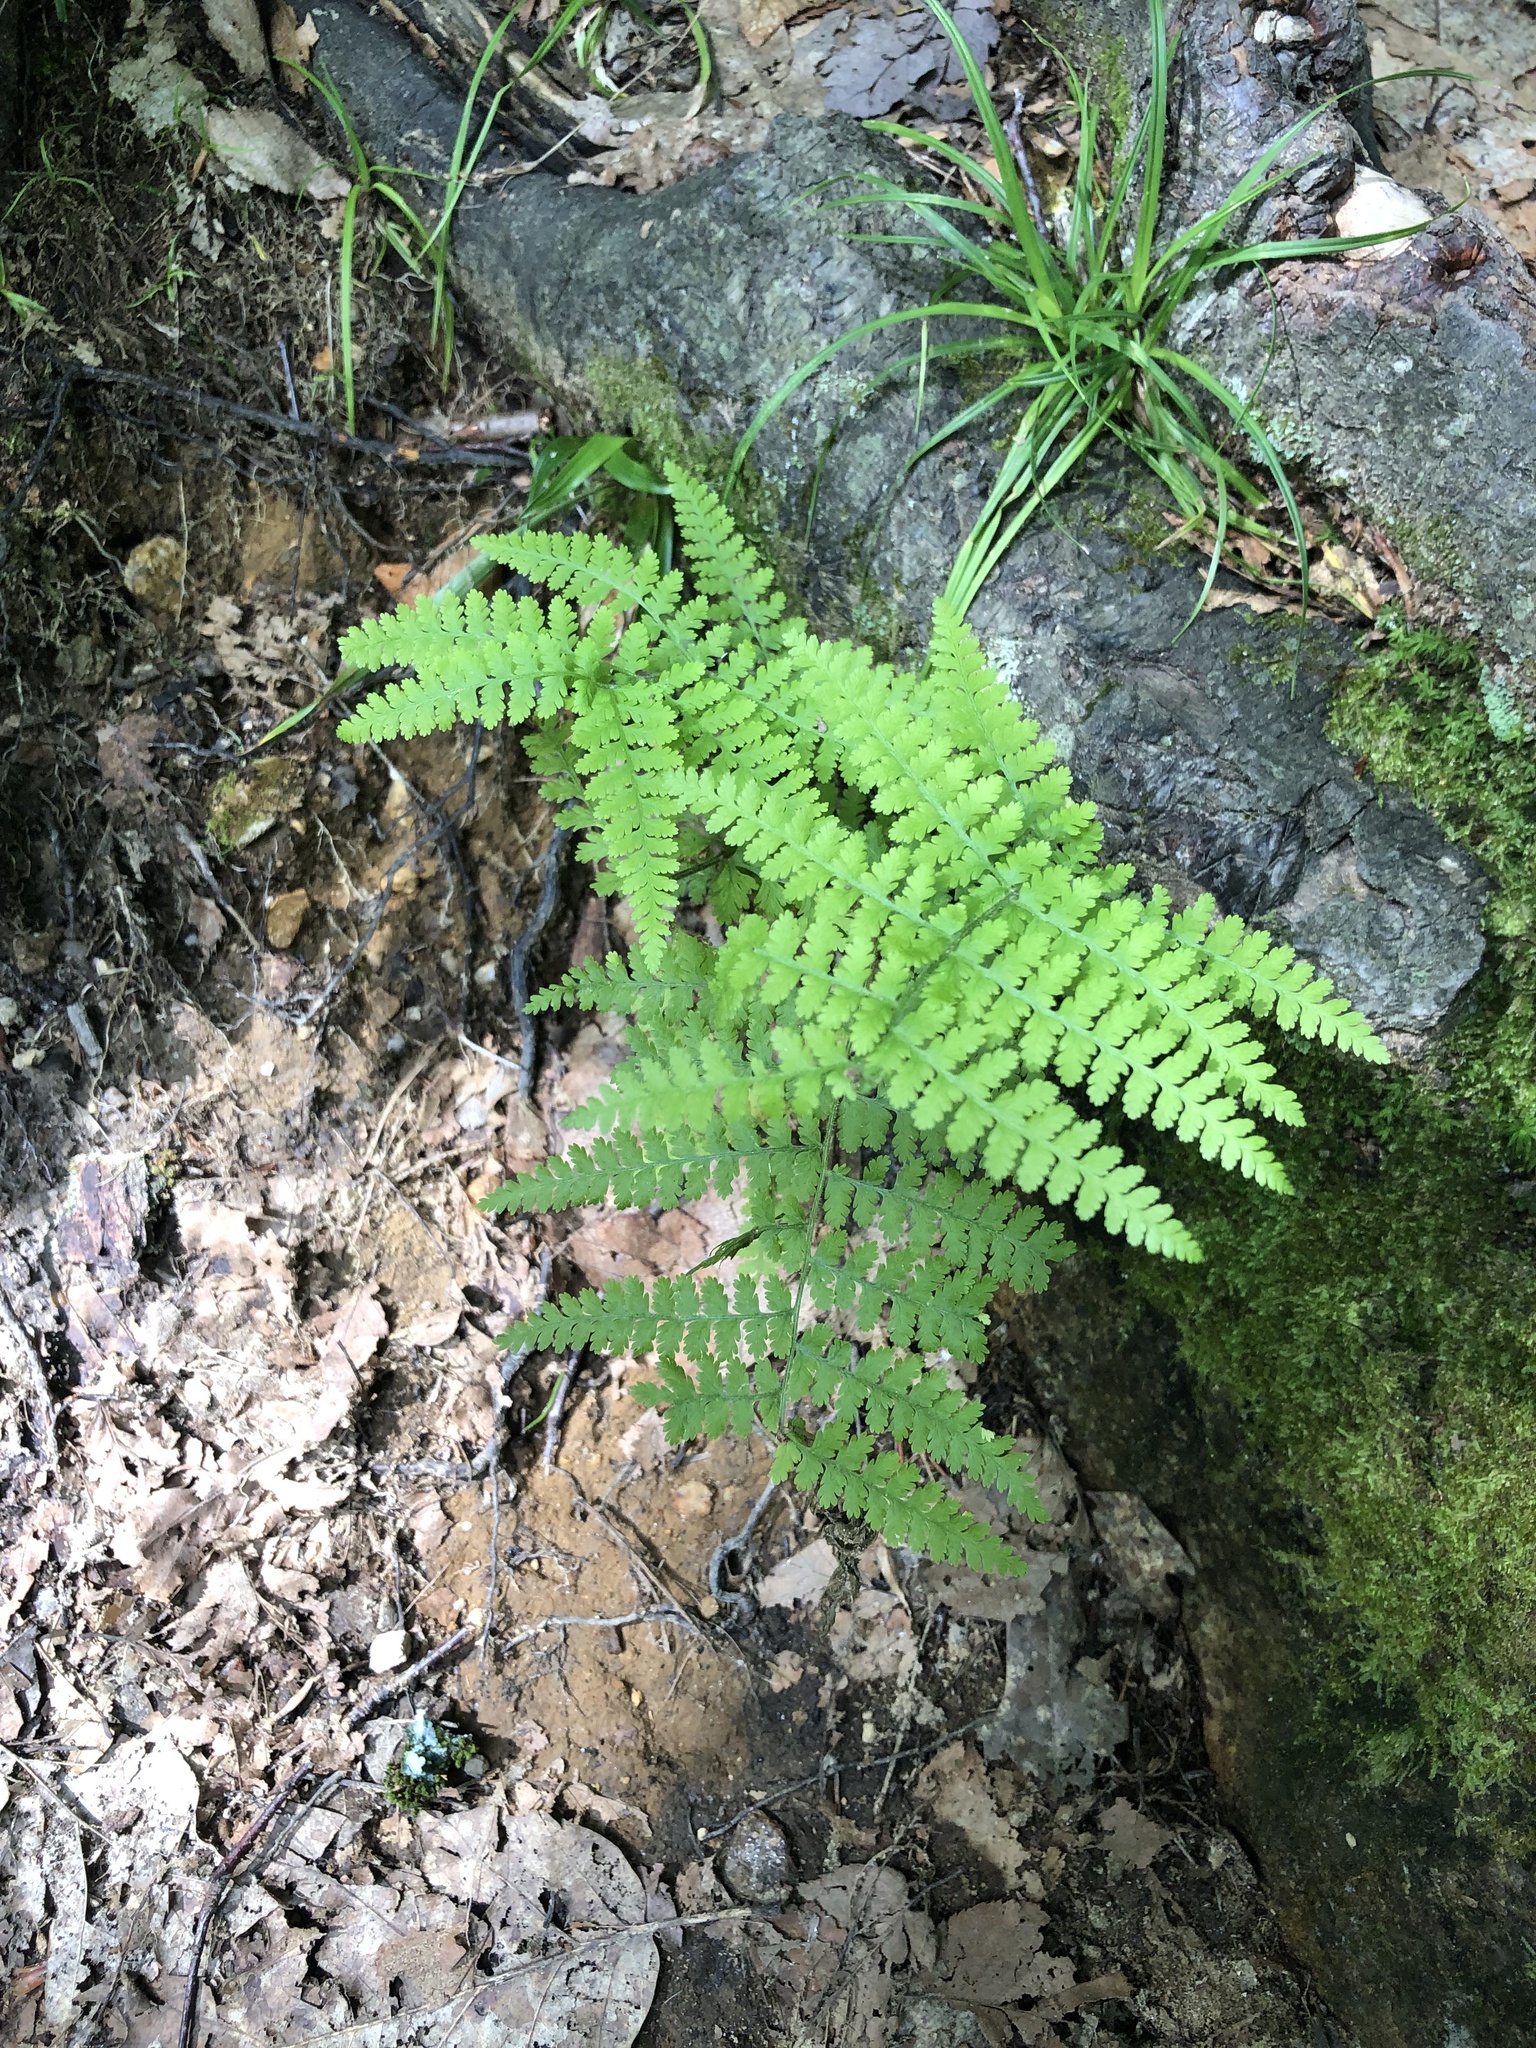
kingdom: Plantae
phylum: Tracheophyta
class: Polypodiopsida
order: Polypodiales
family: Dennstaedtiaceae
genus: Sitobolium
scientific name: Sitobolium punctilobum
